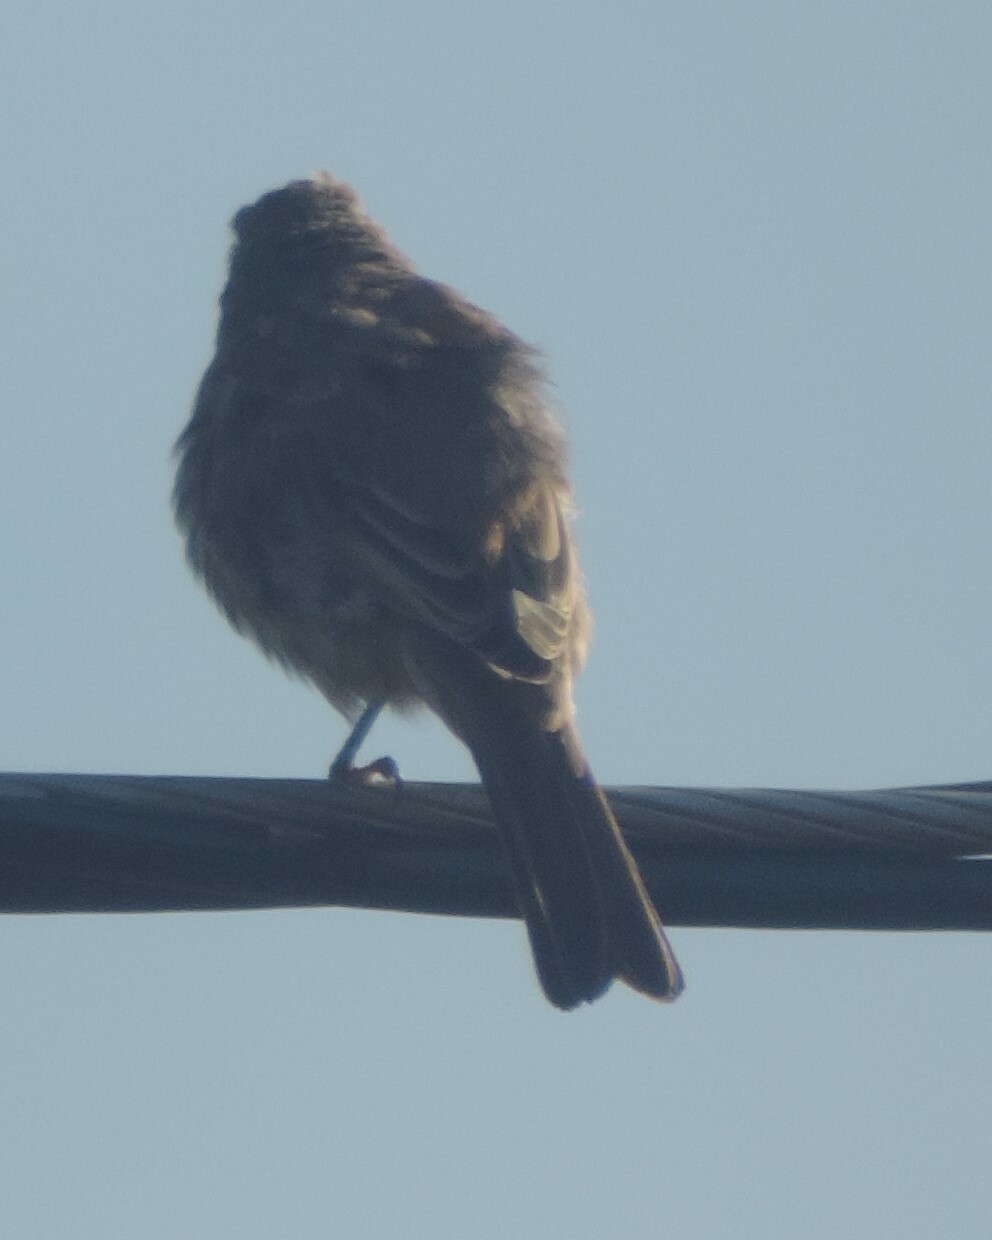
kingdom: Animalia
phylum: Chordata
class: Aves
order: Passeriformes
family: Fringillidae
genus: Haemorhous
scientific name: Haemorhous mexicanus
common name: House finch
